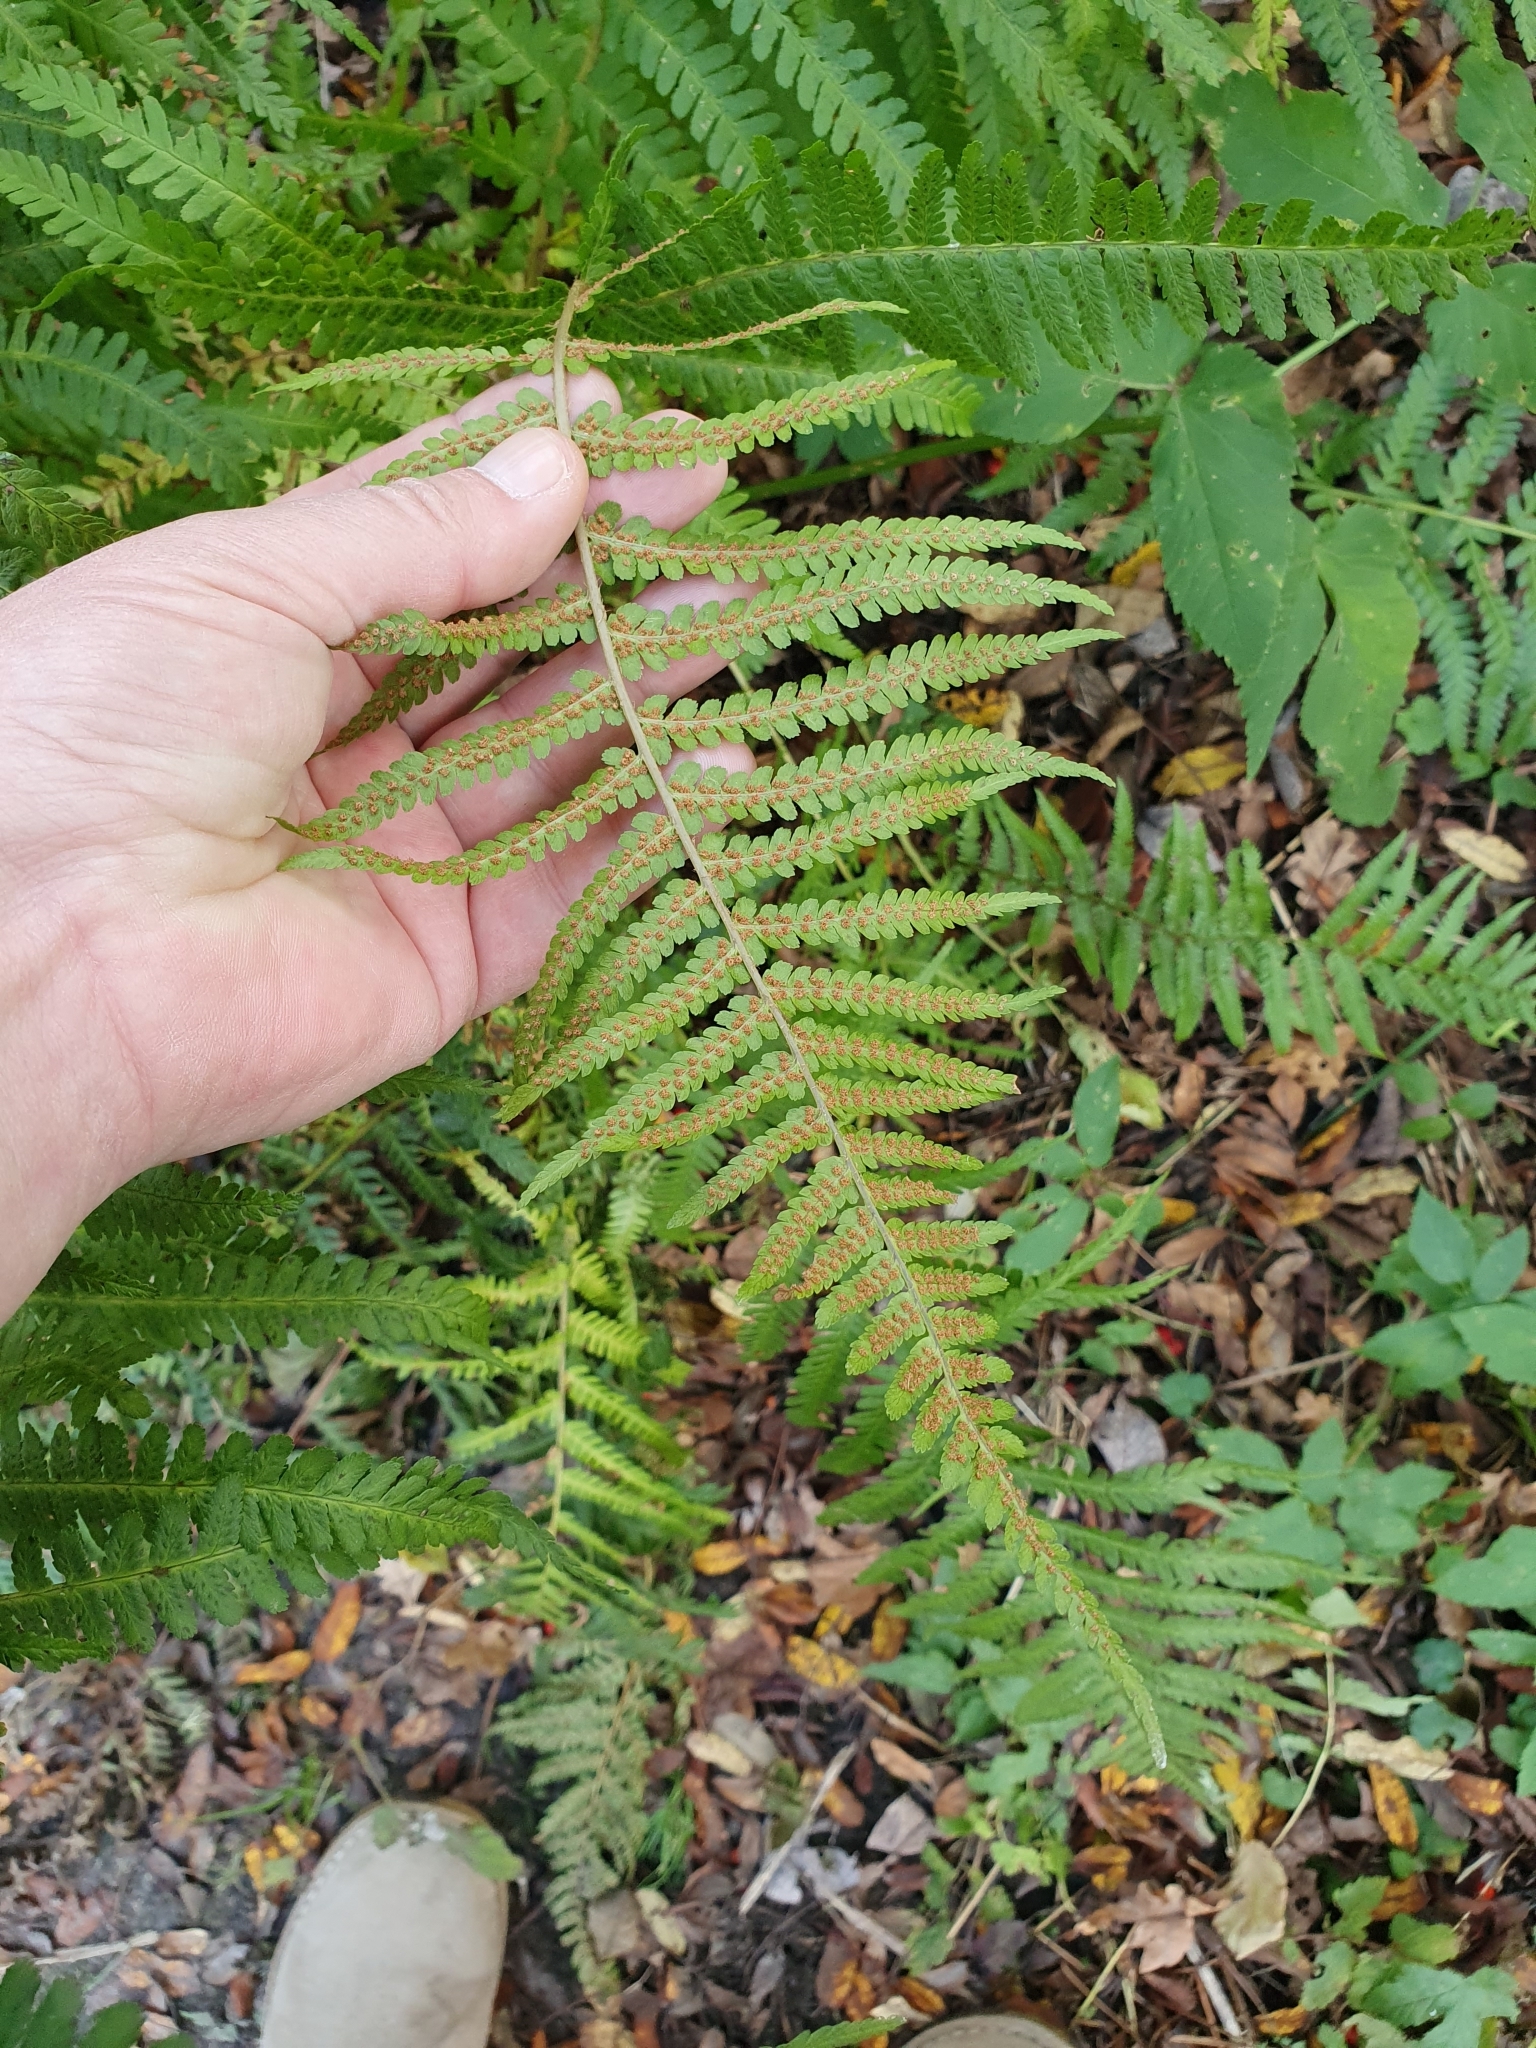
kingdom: Plantae
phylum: Tracheophyta
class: Polypodiopsida
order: Polypodiales
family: Dryopteridaceae
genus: Dryopteris
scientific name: Dryopteris filix-mas
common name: Male fern
